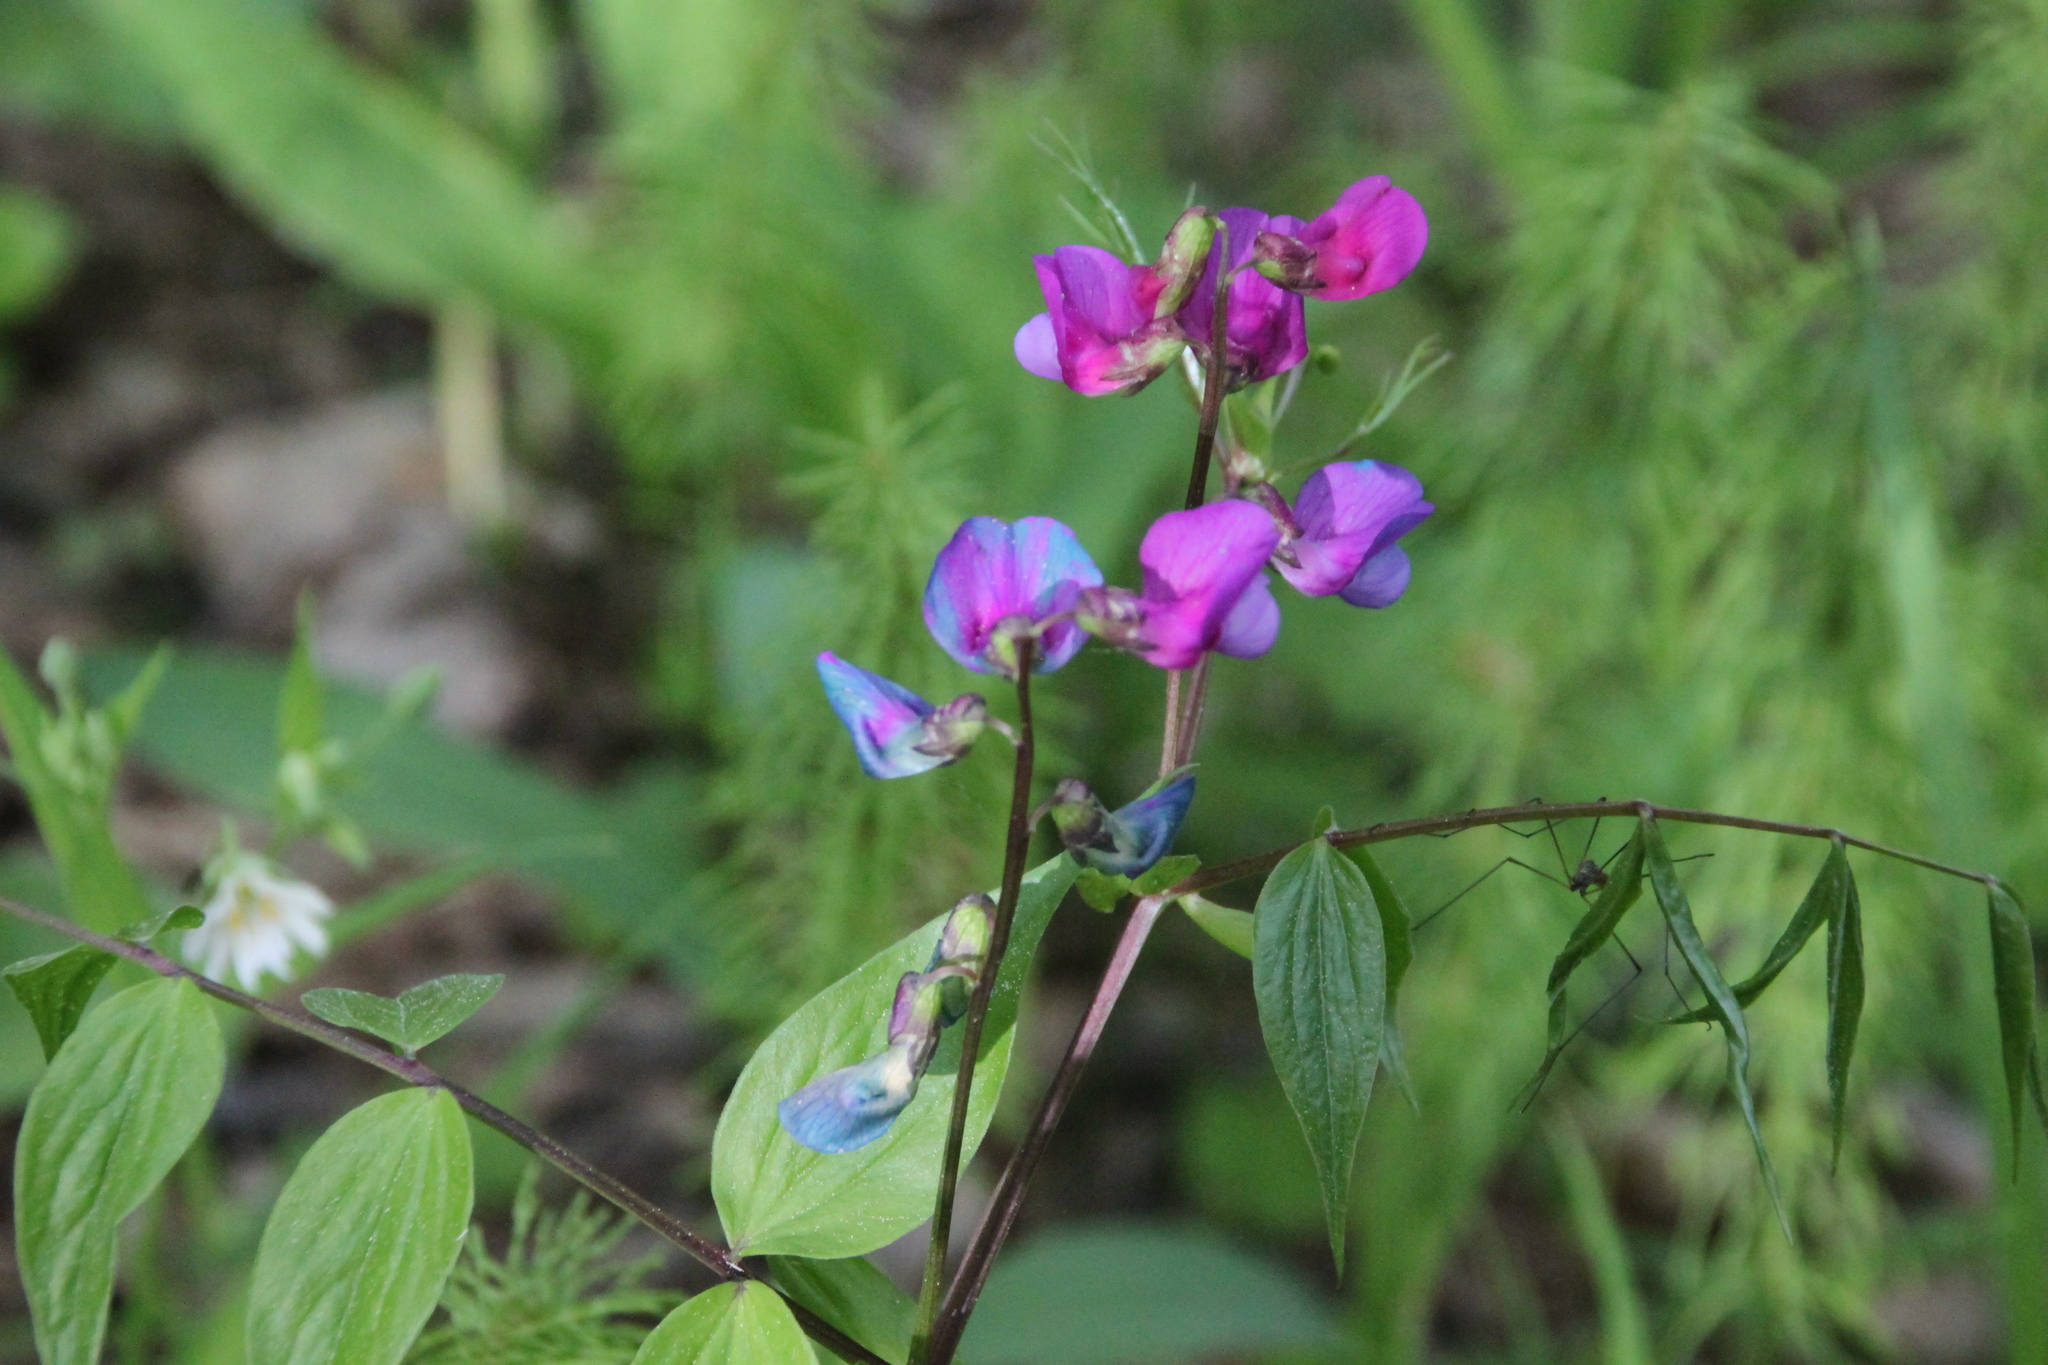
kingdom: Plantae
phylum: Tracheophyta
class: Magnoliopsida
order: Fabales
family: Fabaceae
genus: Lathyrus
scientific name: Lathyrus vernus
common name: Spring pea
